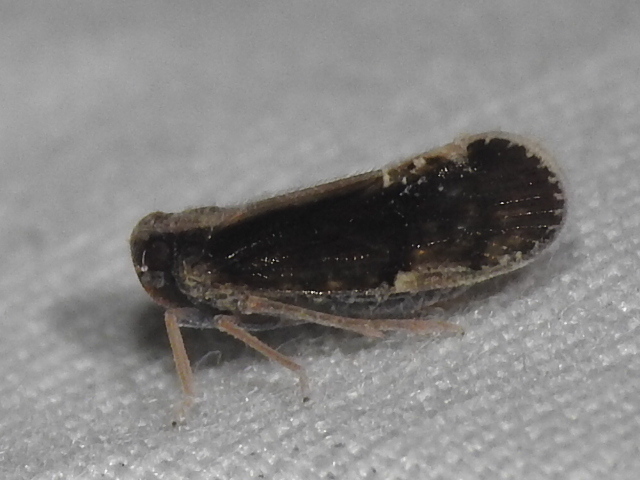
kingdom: Animalia
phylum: Arthropoda
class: Insecta
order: Hemiptera
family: Cixiidae
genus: Pintalia
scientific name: Pintalia delicata
